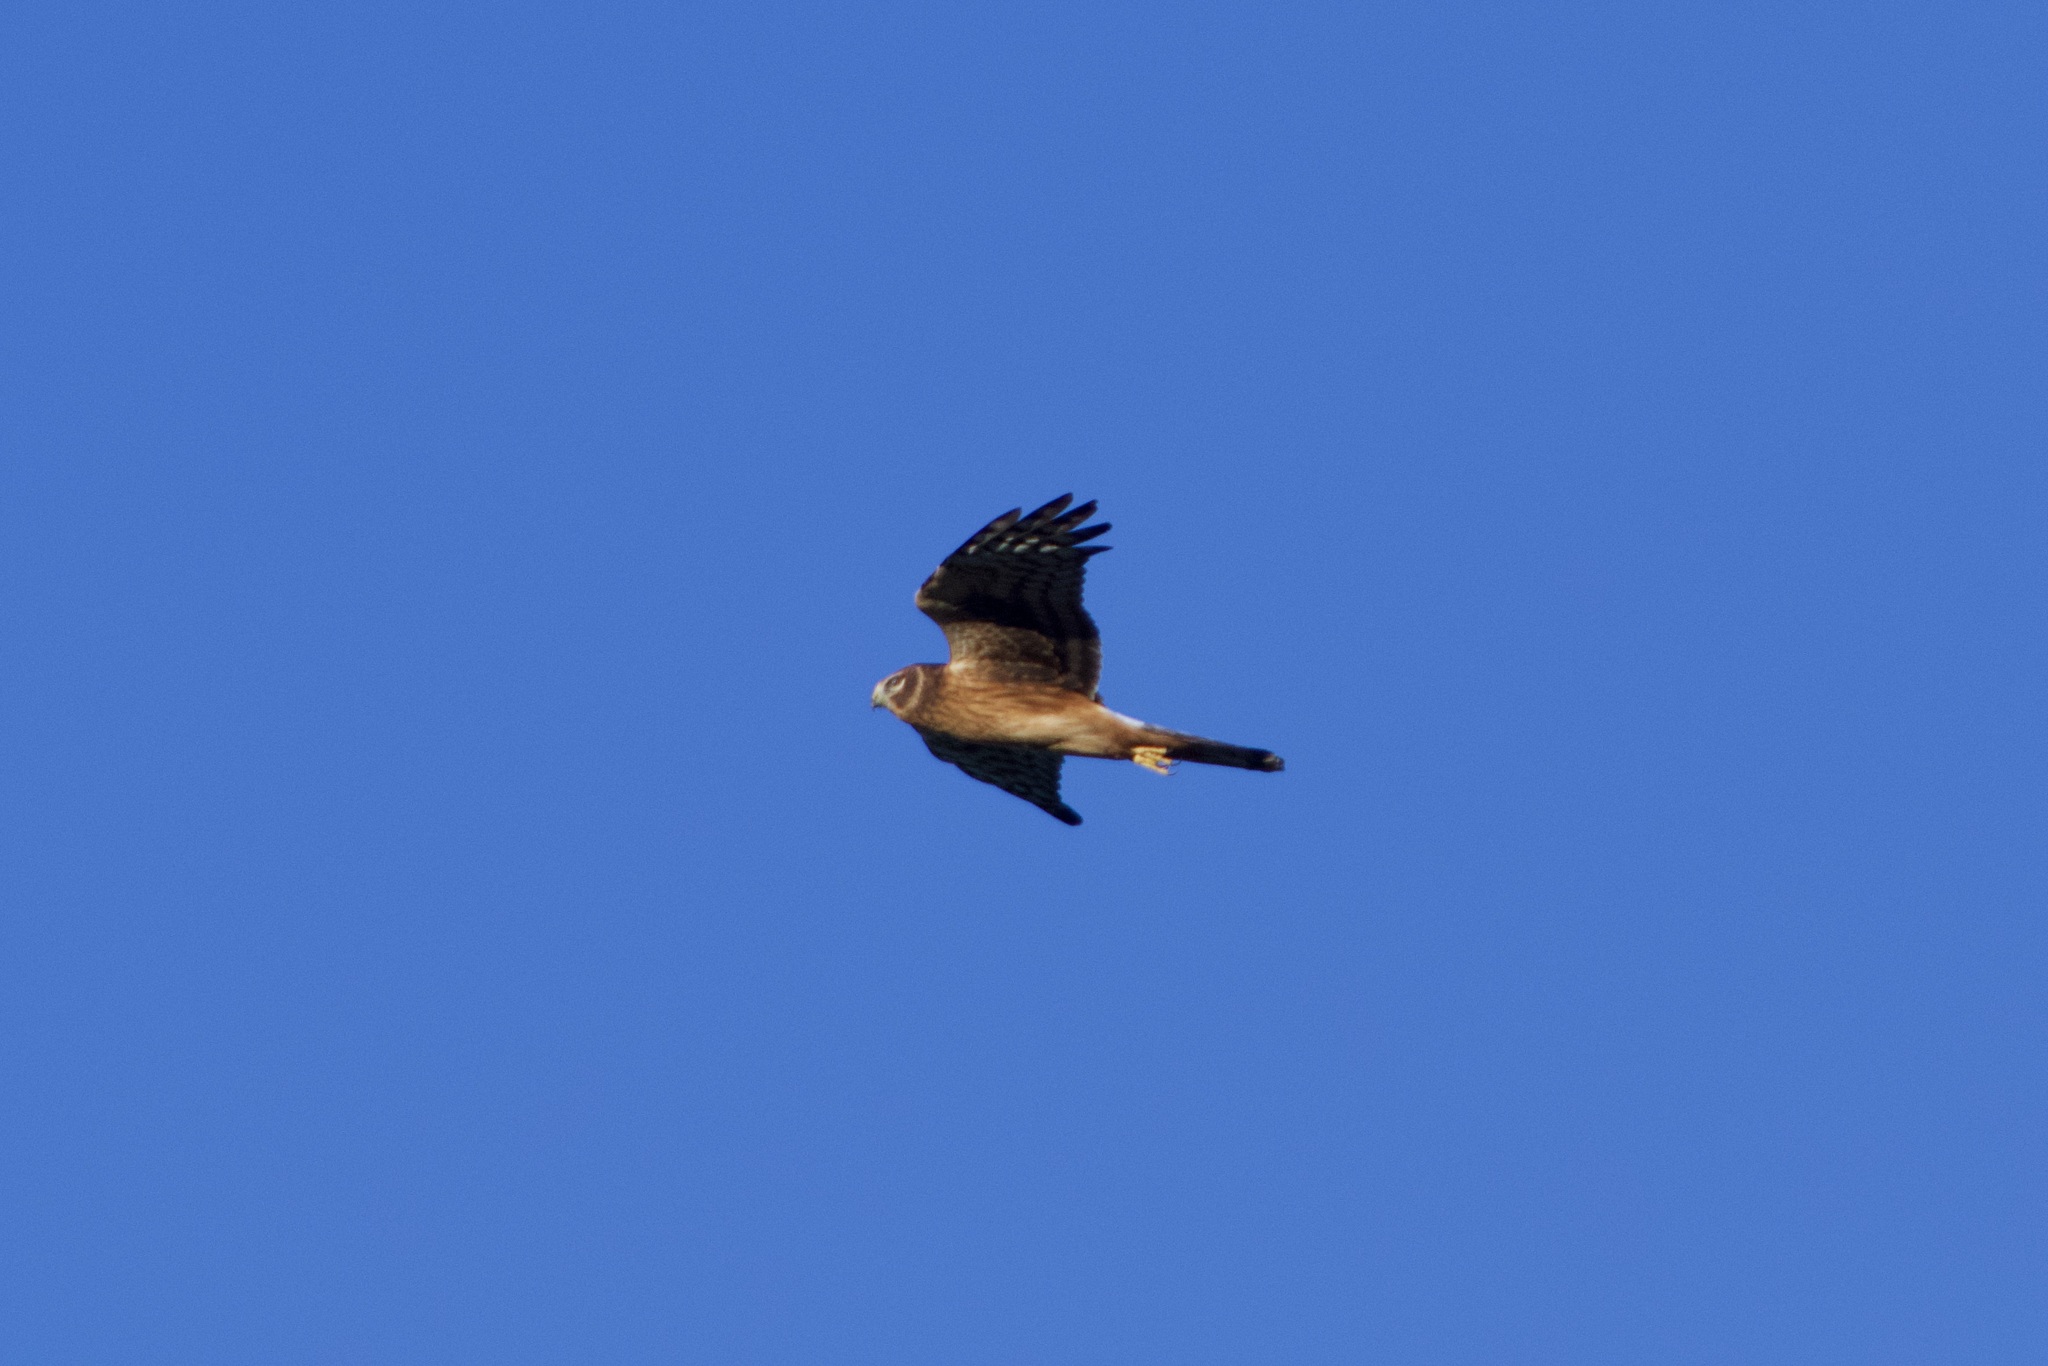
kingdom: Animalia
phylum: Chordata
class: Aves
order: Accipitriformes
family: Accipitridae
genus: Circus
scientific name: Circus cyaneus
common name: Hen harrier
